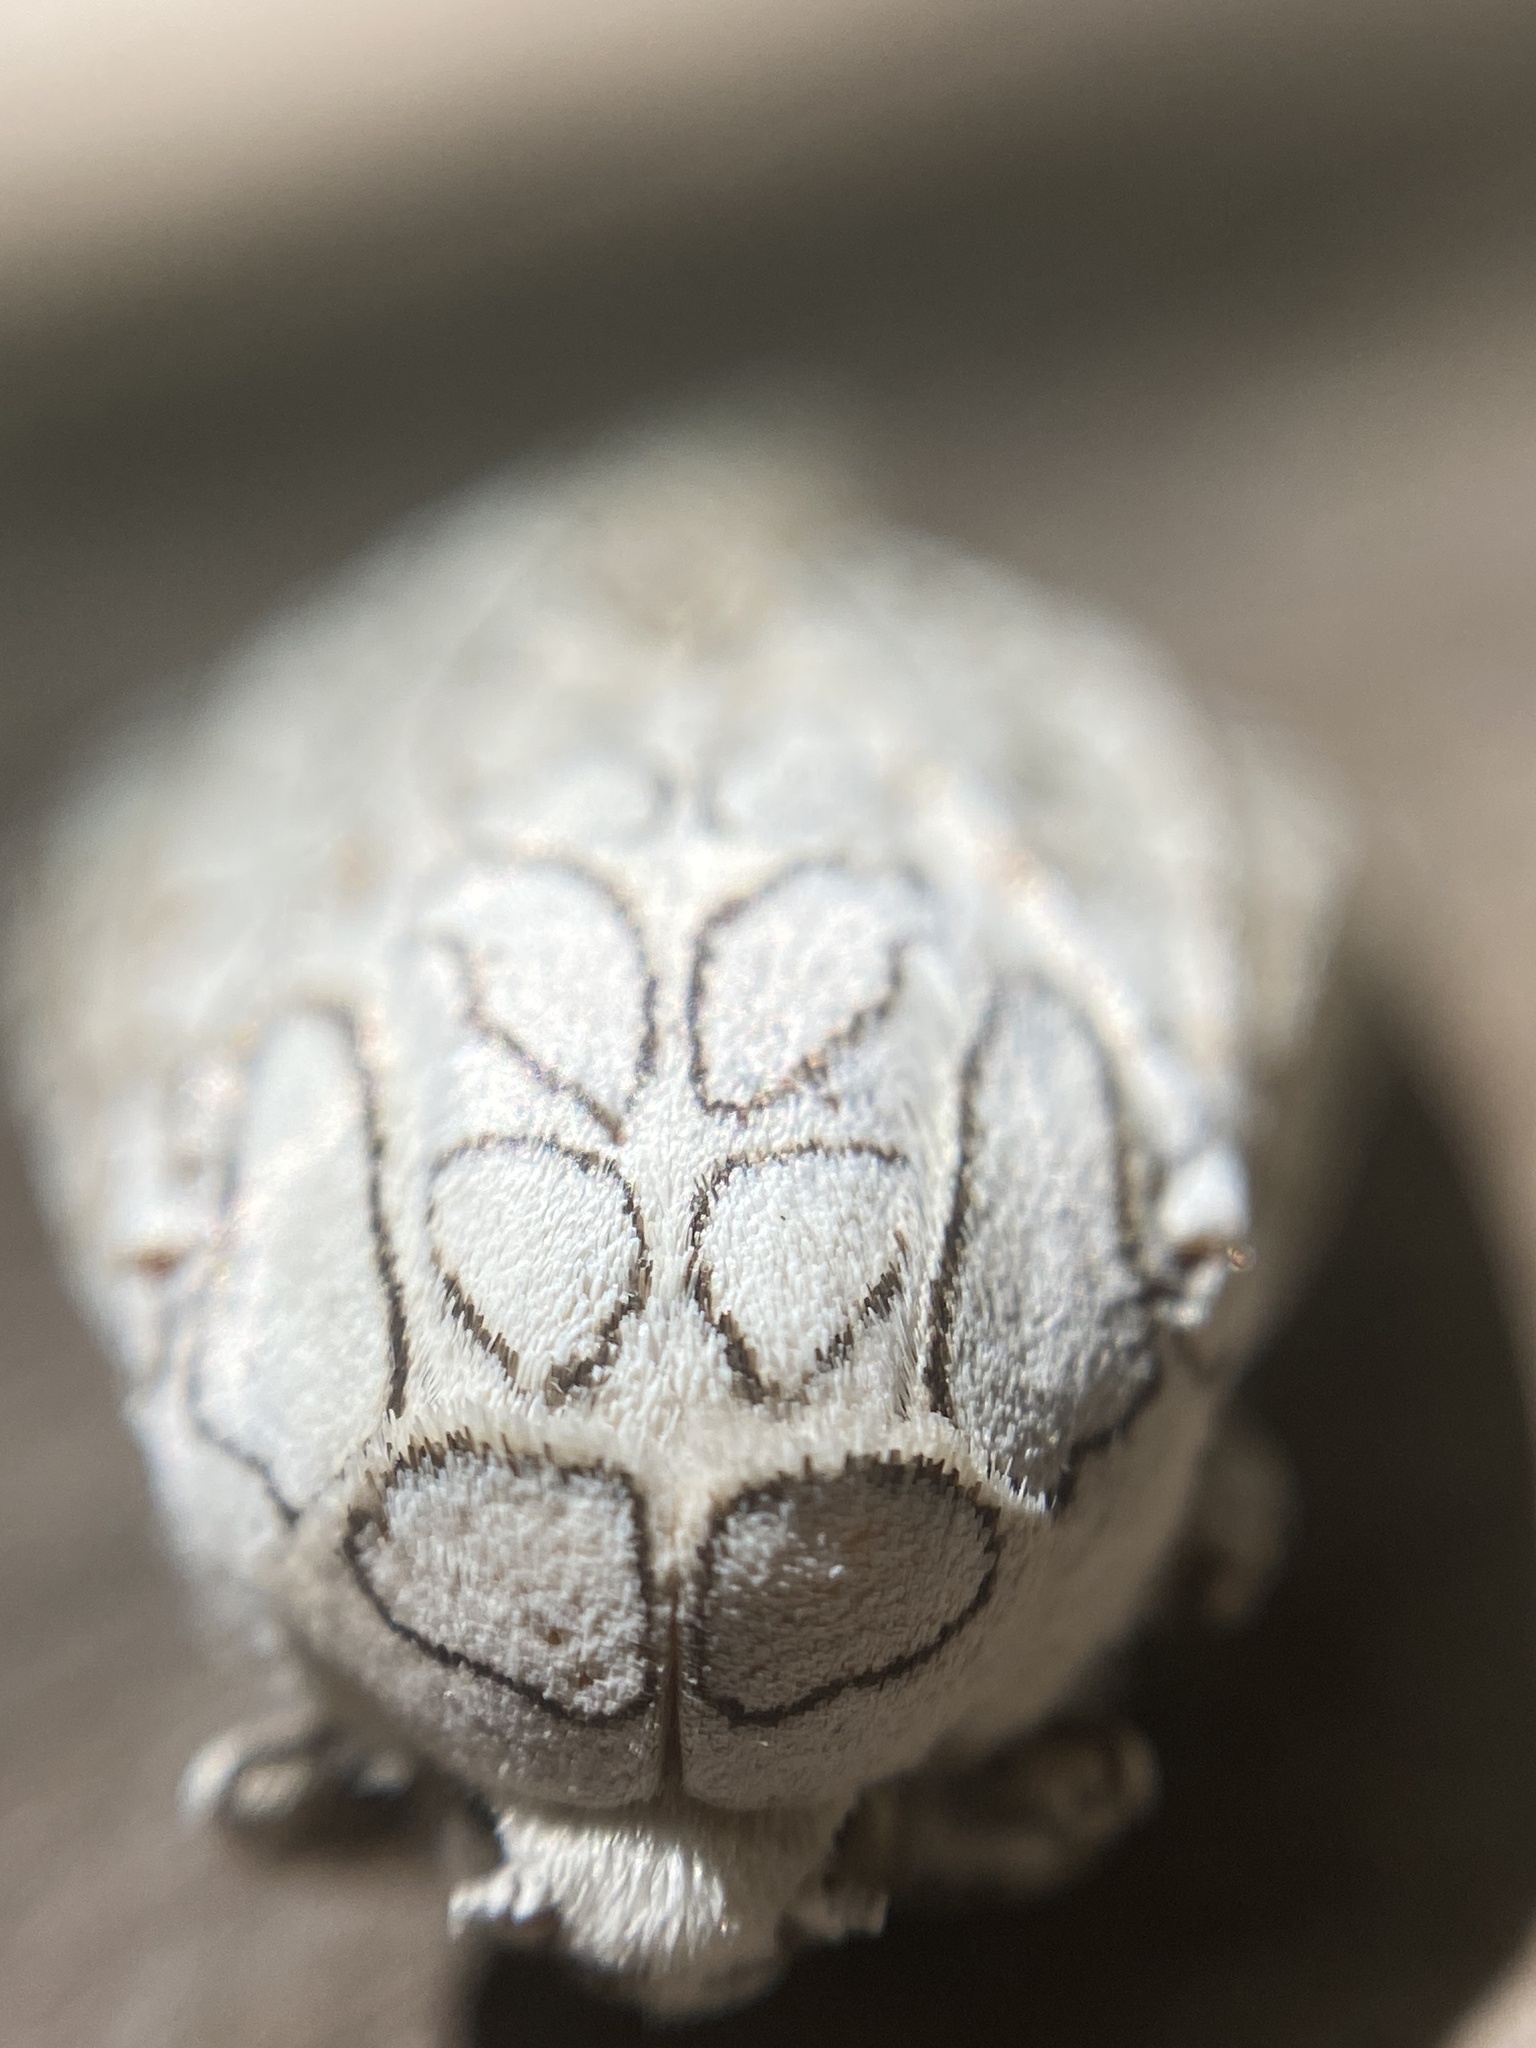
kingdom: Animalia
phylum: Arthropoda
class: Insecta
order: Lepidoptera
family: Erebidae
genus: Hypercompe
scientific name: Hypercompe abdominalis
